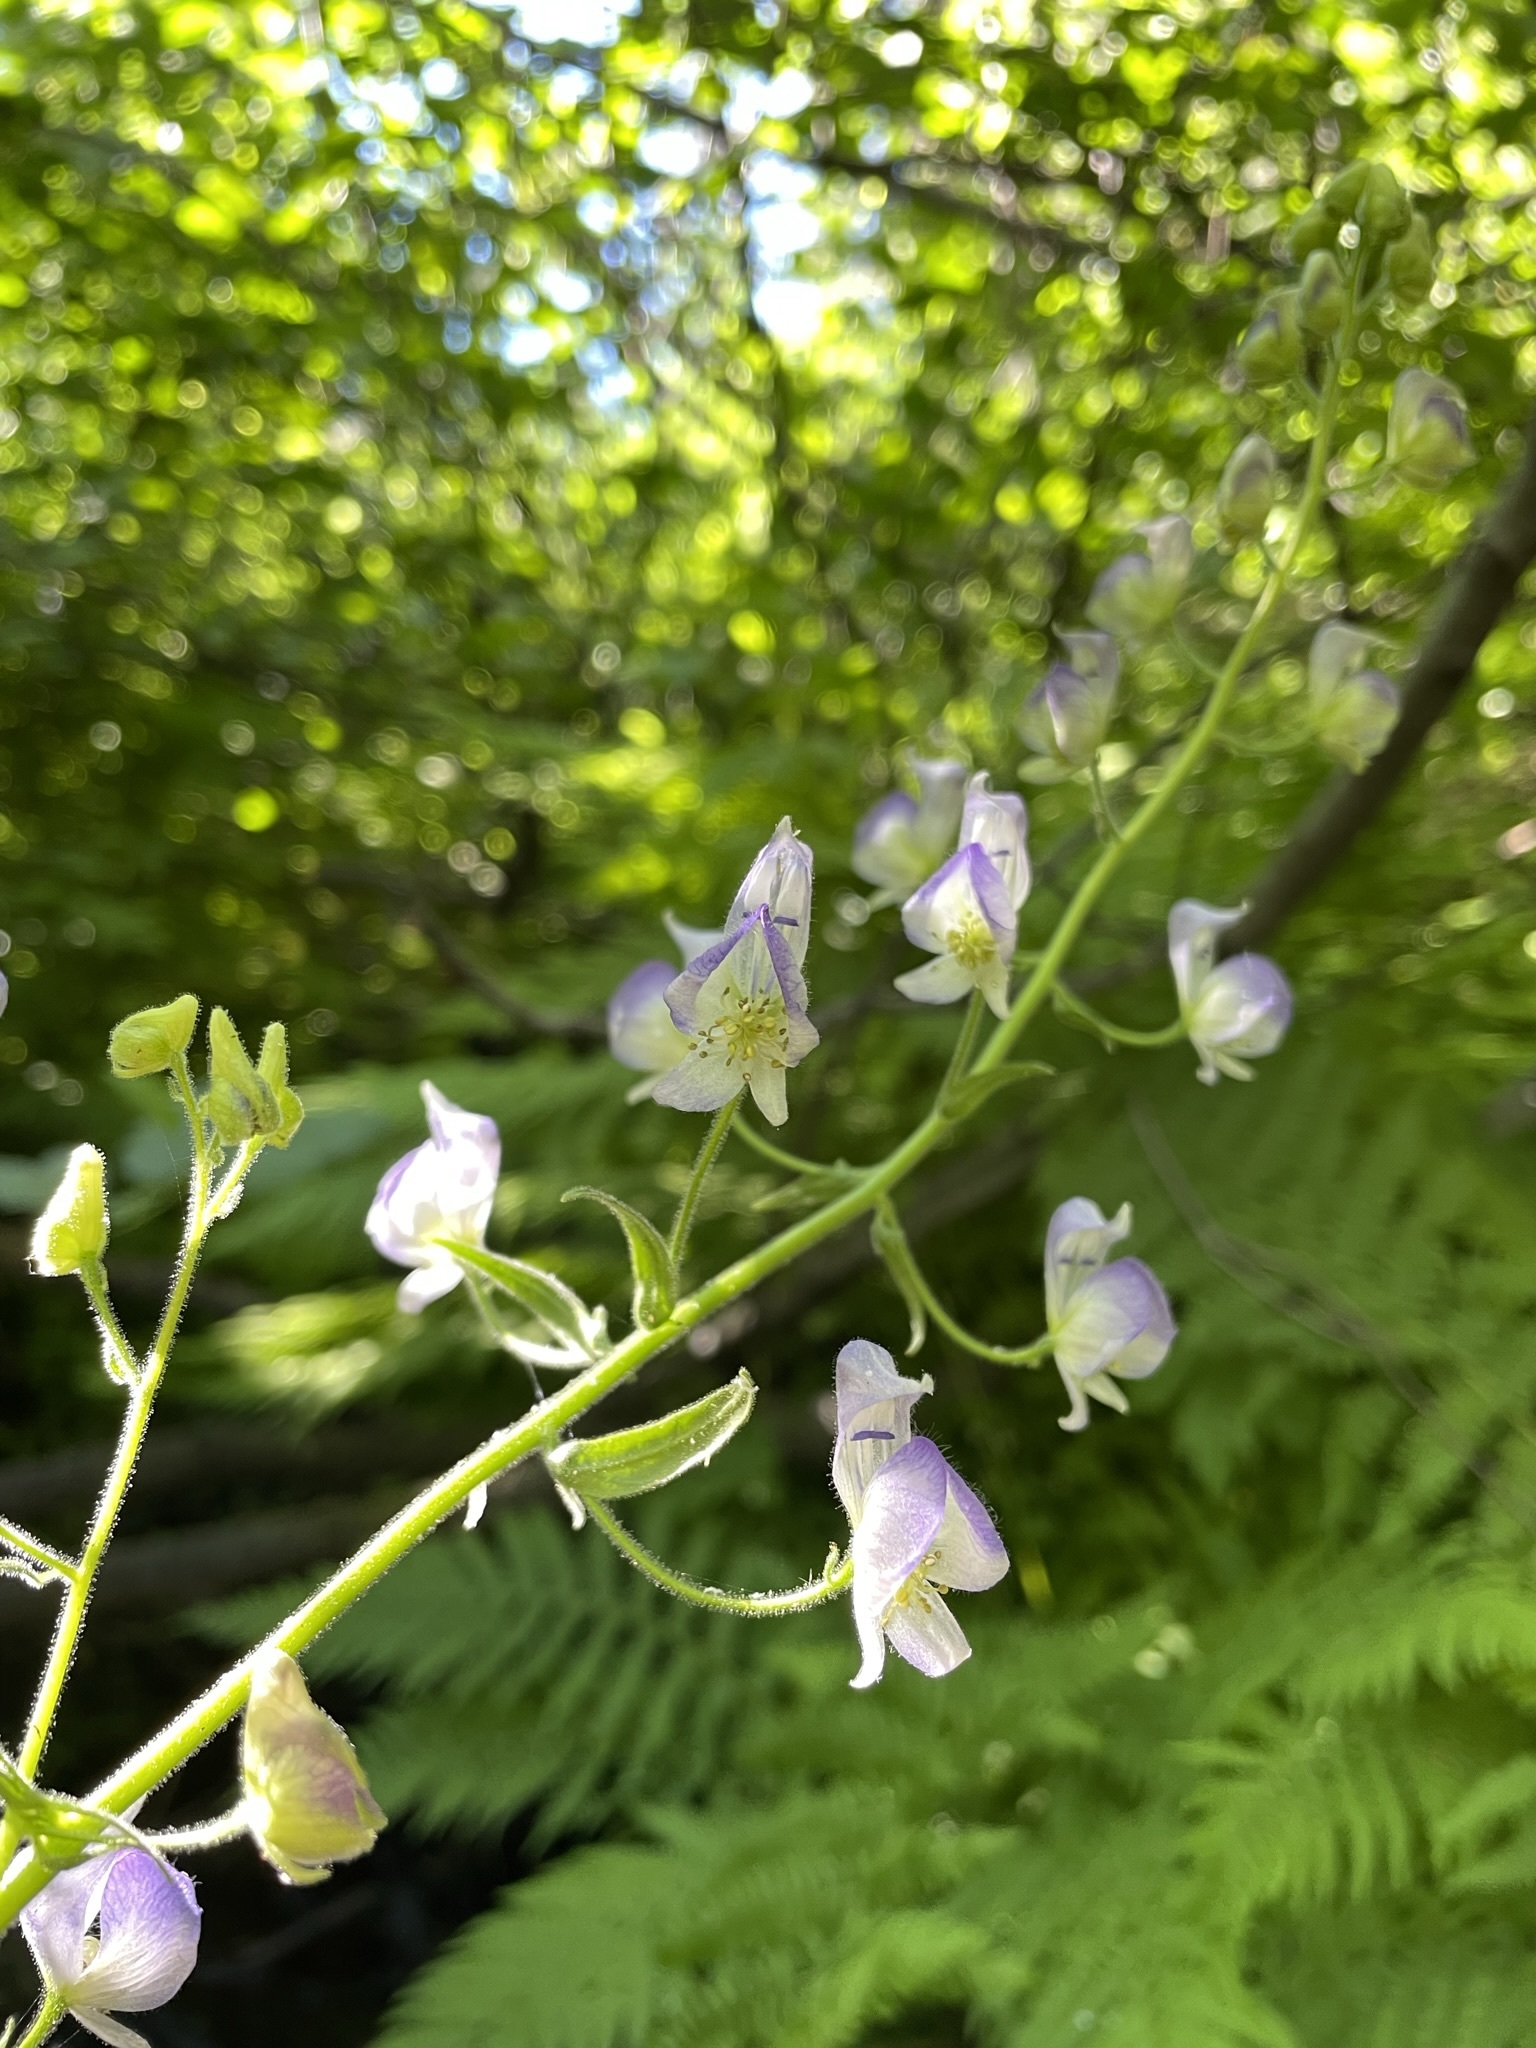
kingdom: Plantae
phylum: Tracheophyta
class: Magnoliopsida
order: Ranunculales
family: Ranunculaceae
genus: Aconitum
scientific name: Aconitum columbianum
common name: Columbia aconite
